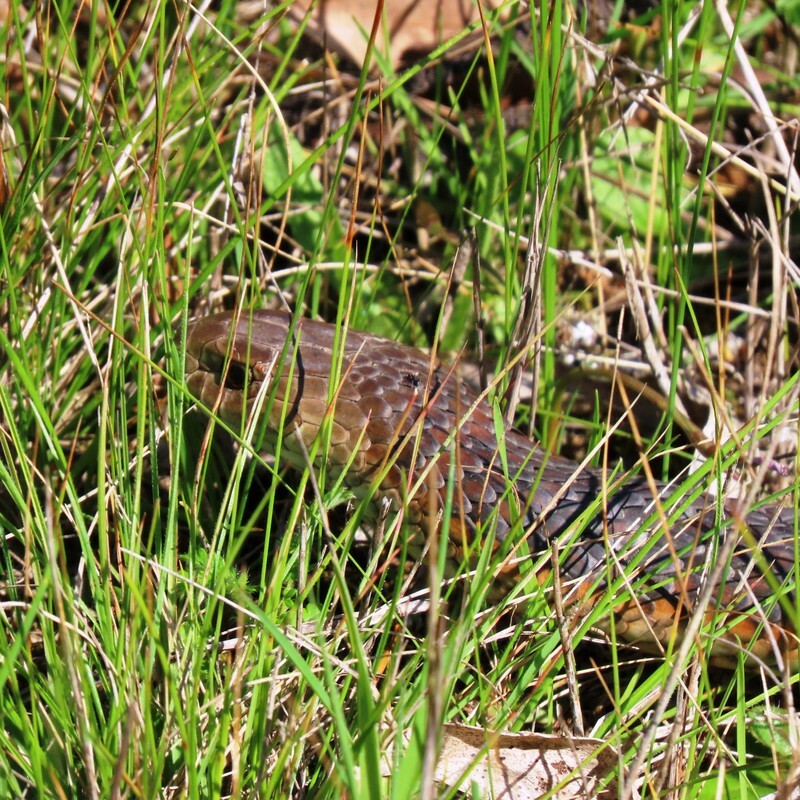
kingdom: Animalia
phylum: Chordata
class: Squamata
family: Elapidae
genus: Austrelaps
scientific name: Austrelaps superbus
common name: Copperhead snake
